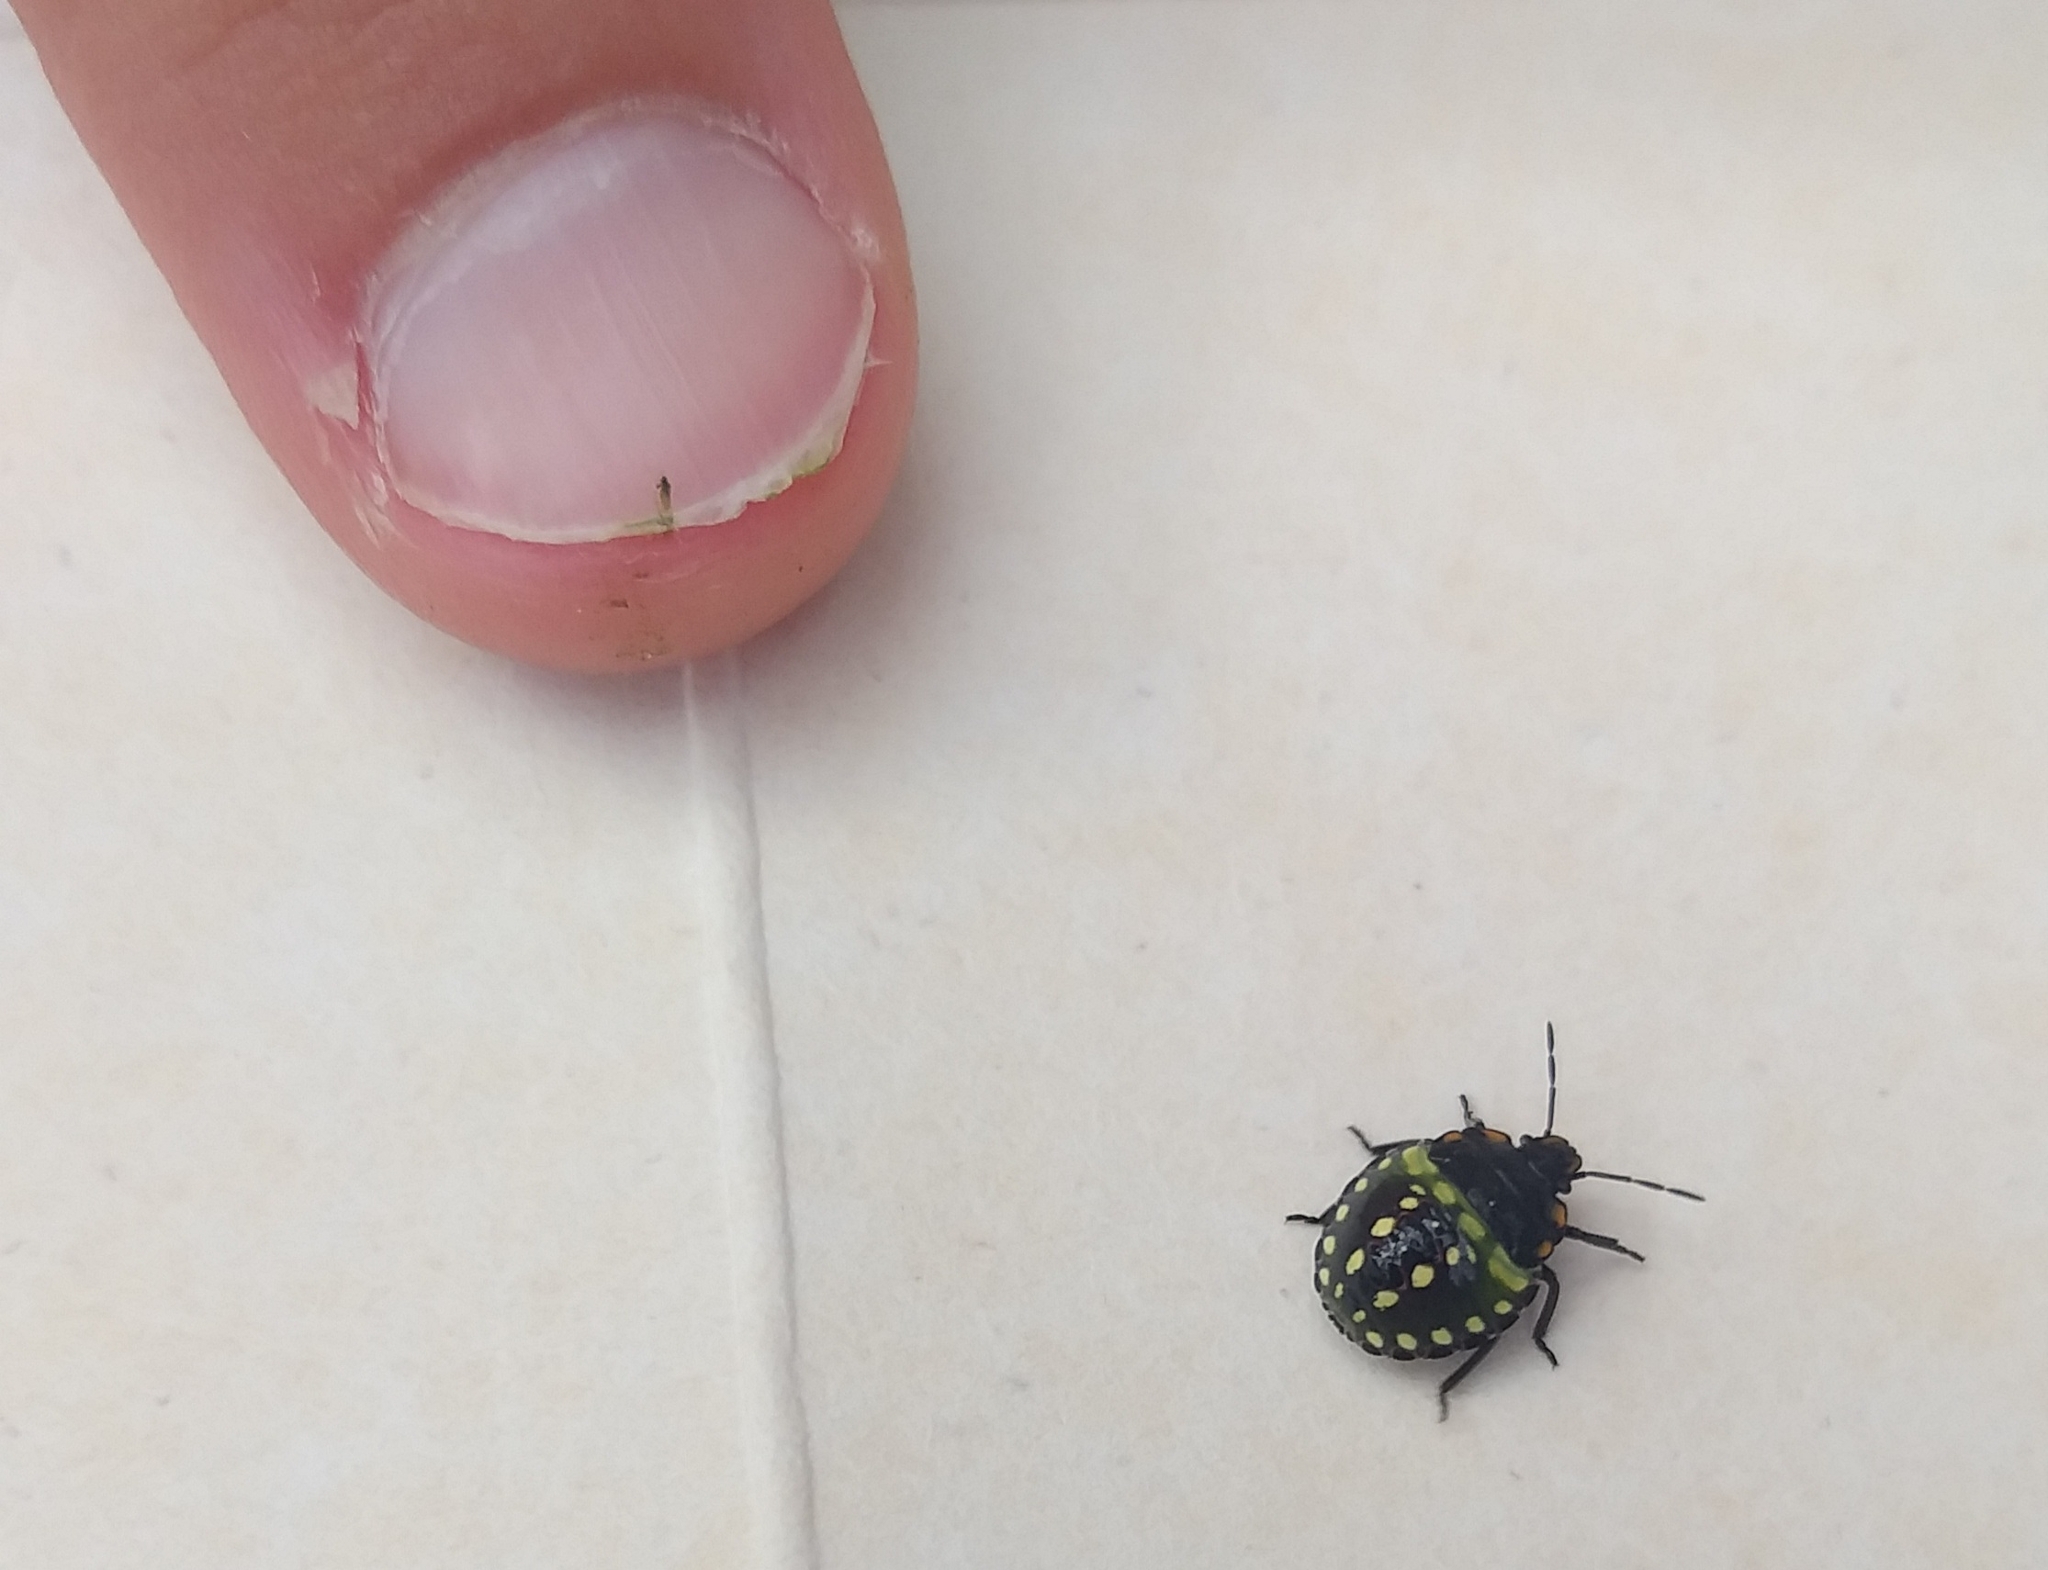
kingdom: Animalia
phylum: Arthropoda
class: Insecta
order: Hemiptera
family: Pentatomidae
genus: Nezara
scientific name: Nezara viridula
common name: Southern green stink bug
